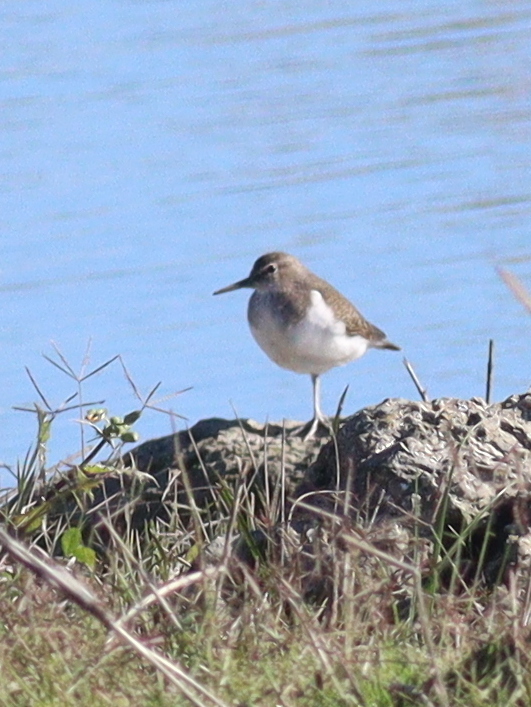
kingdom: Animalia
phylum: Chordata
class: Aves
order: Charadriiformes
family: Scolopacidae
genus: Actitis
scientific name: Actitis hypoleucos
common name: Common sandpiper
